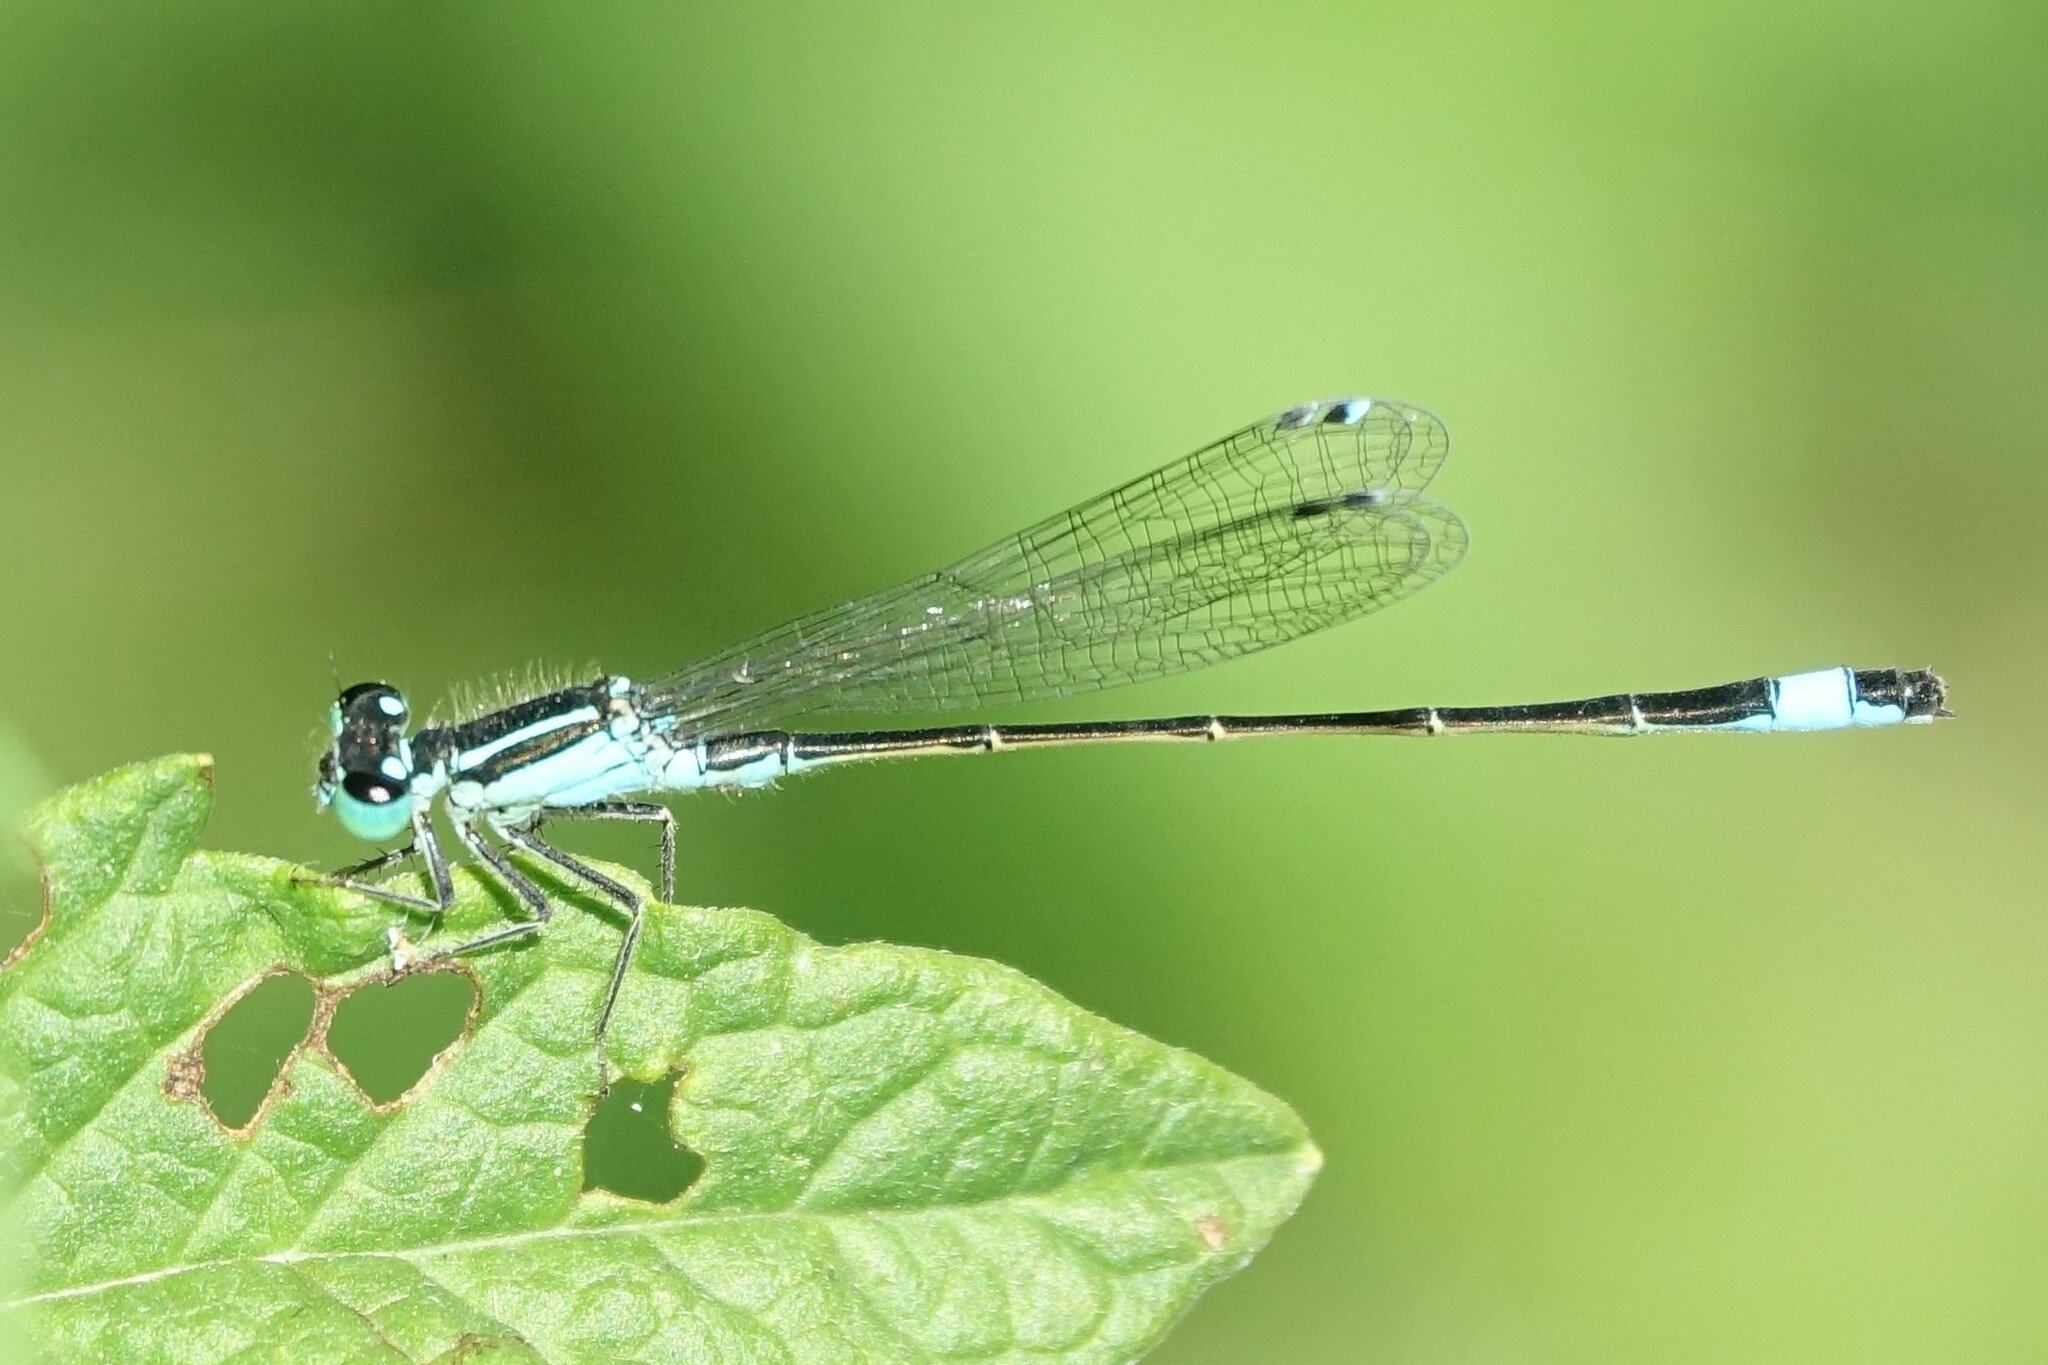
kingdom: Animalia
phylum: Arthropoda
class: Insecta
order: Odonata
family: Coenagrionidae
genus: Ischnura
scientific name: Ischnura elegans
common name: Blue-tailed damselfly
